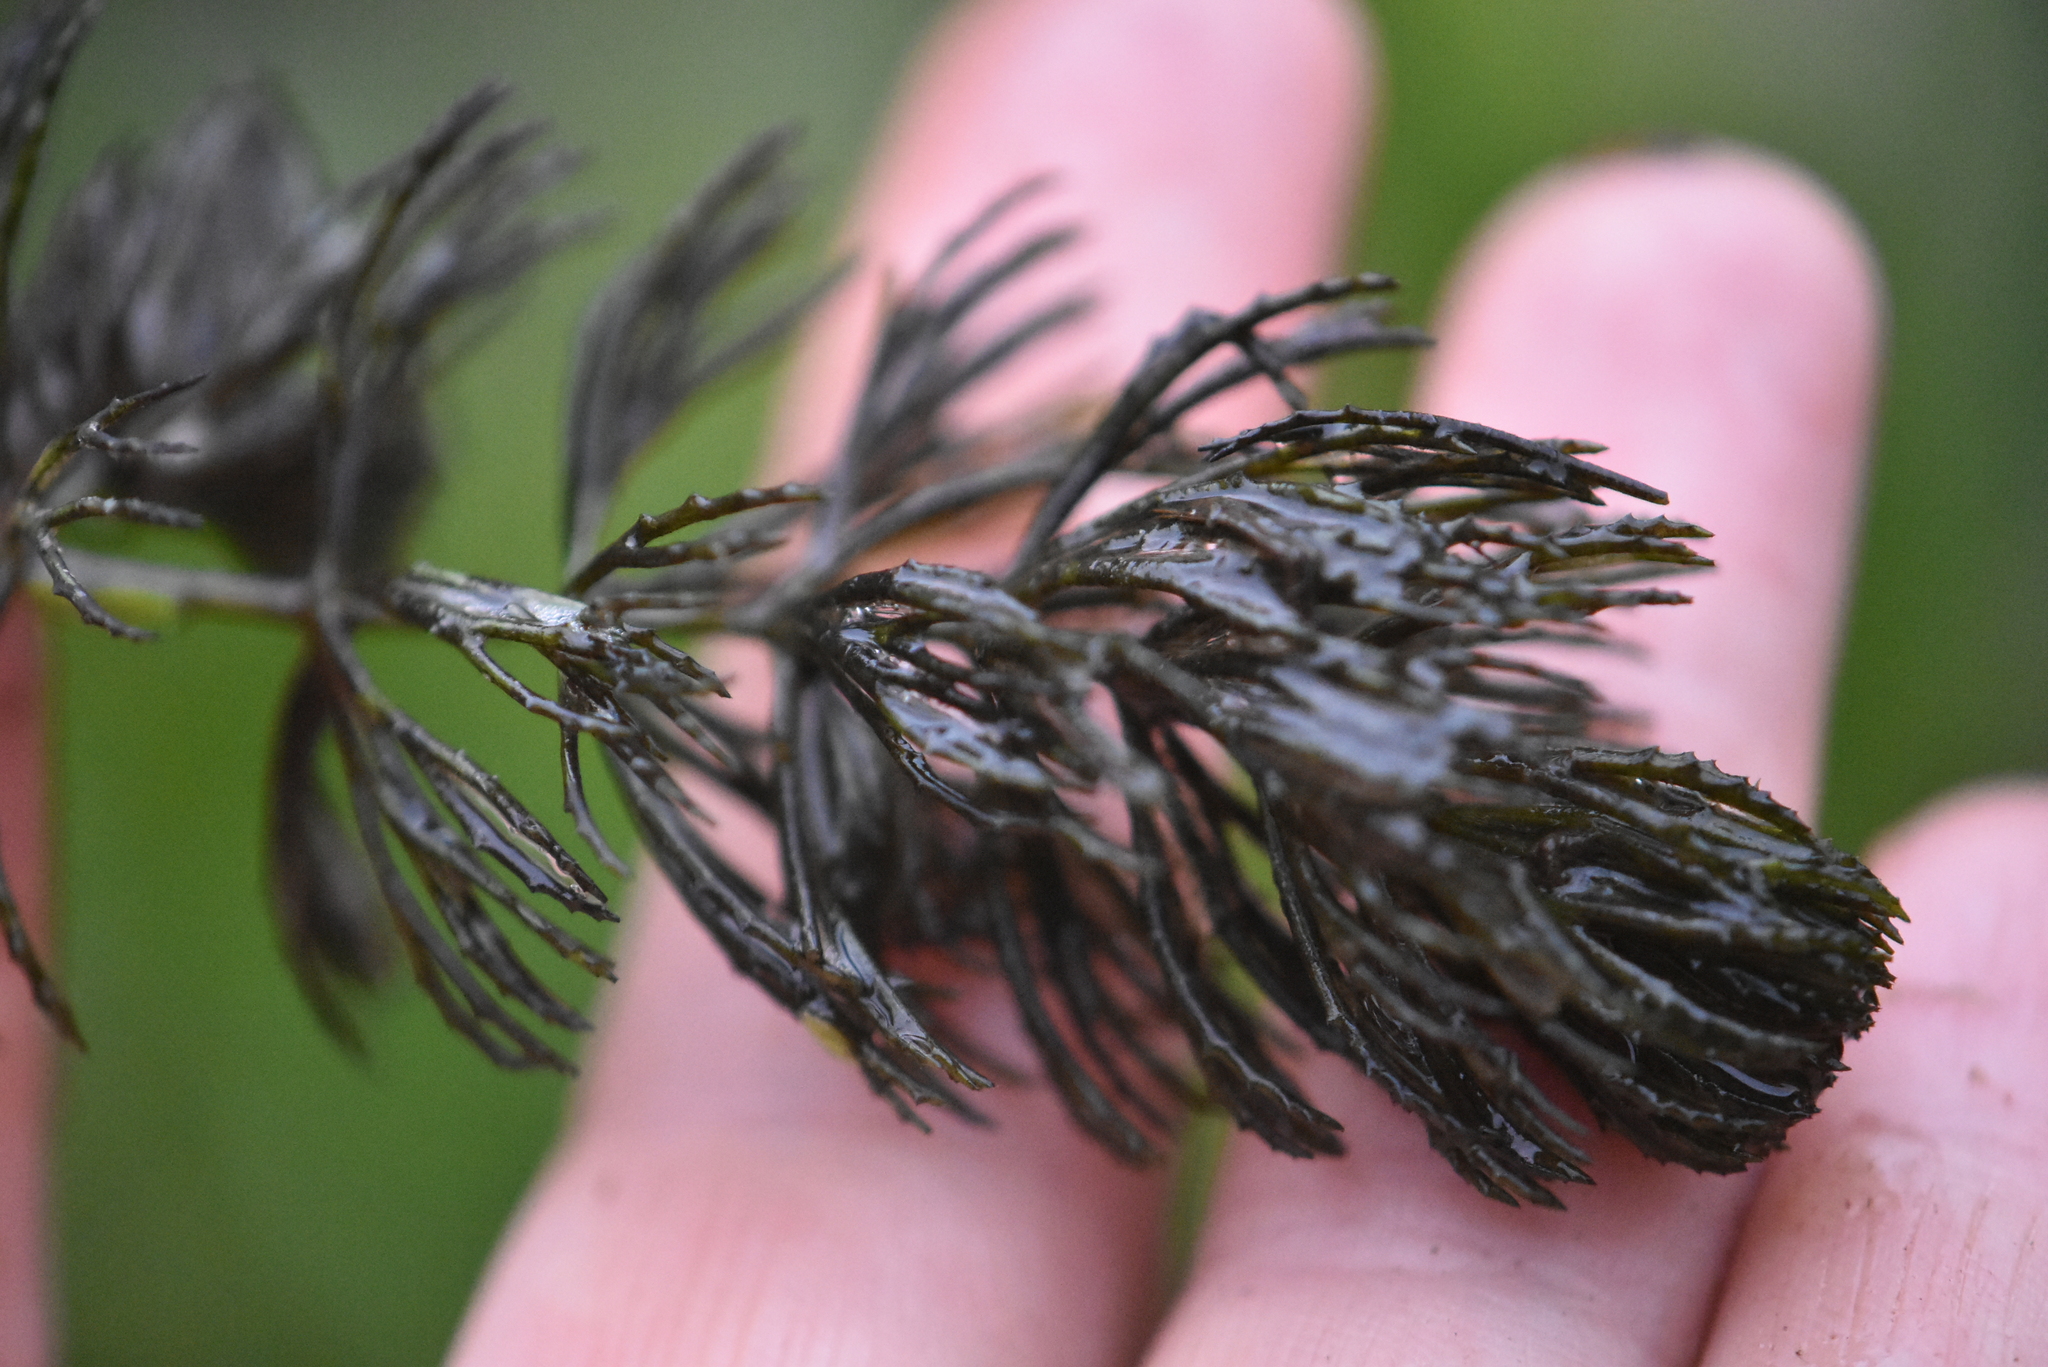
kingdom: Plantae
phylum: Tracheophyta
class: Magnoliopsida
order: Ceratophyllales
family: Ceratophyllaceae
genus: Ceratophyllum
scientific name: Ceratophyllum demersum
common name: Rigid hornwort
